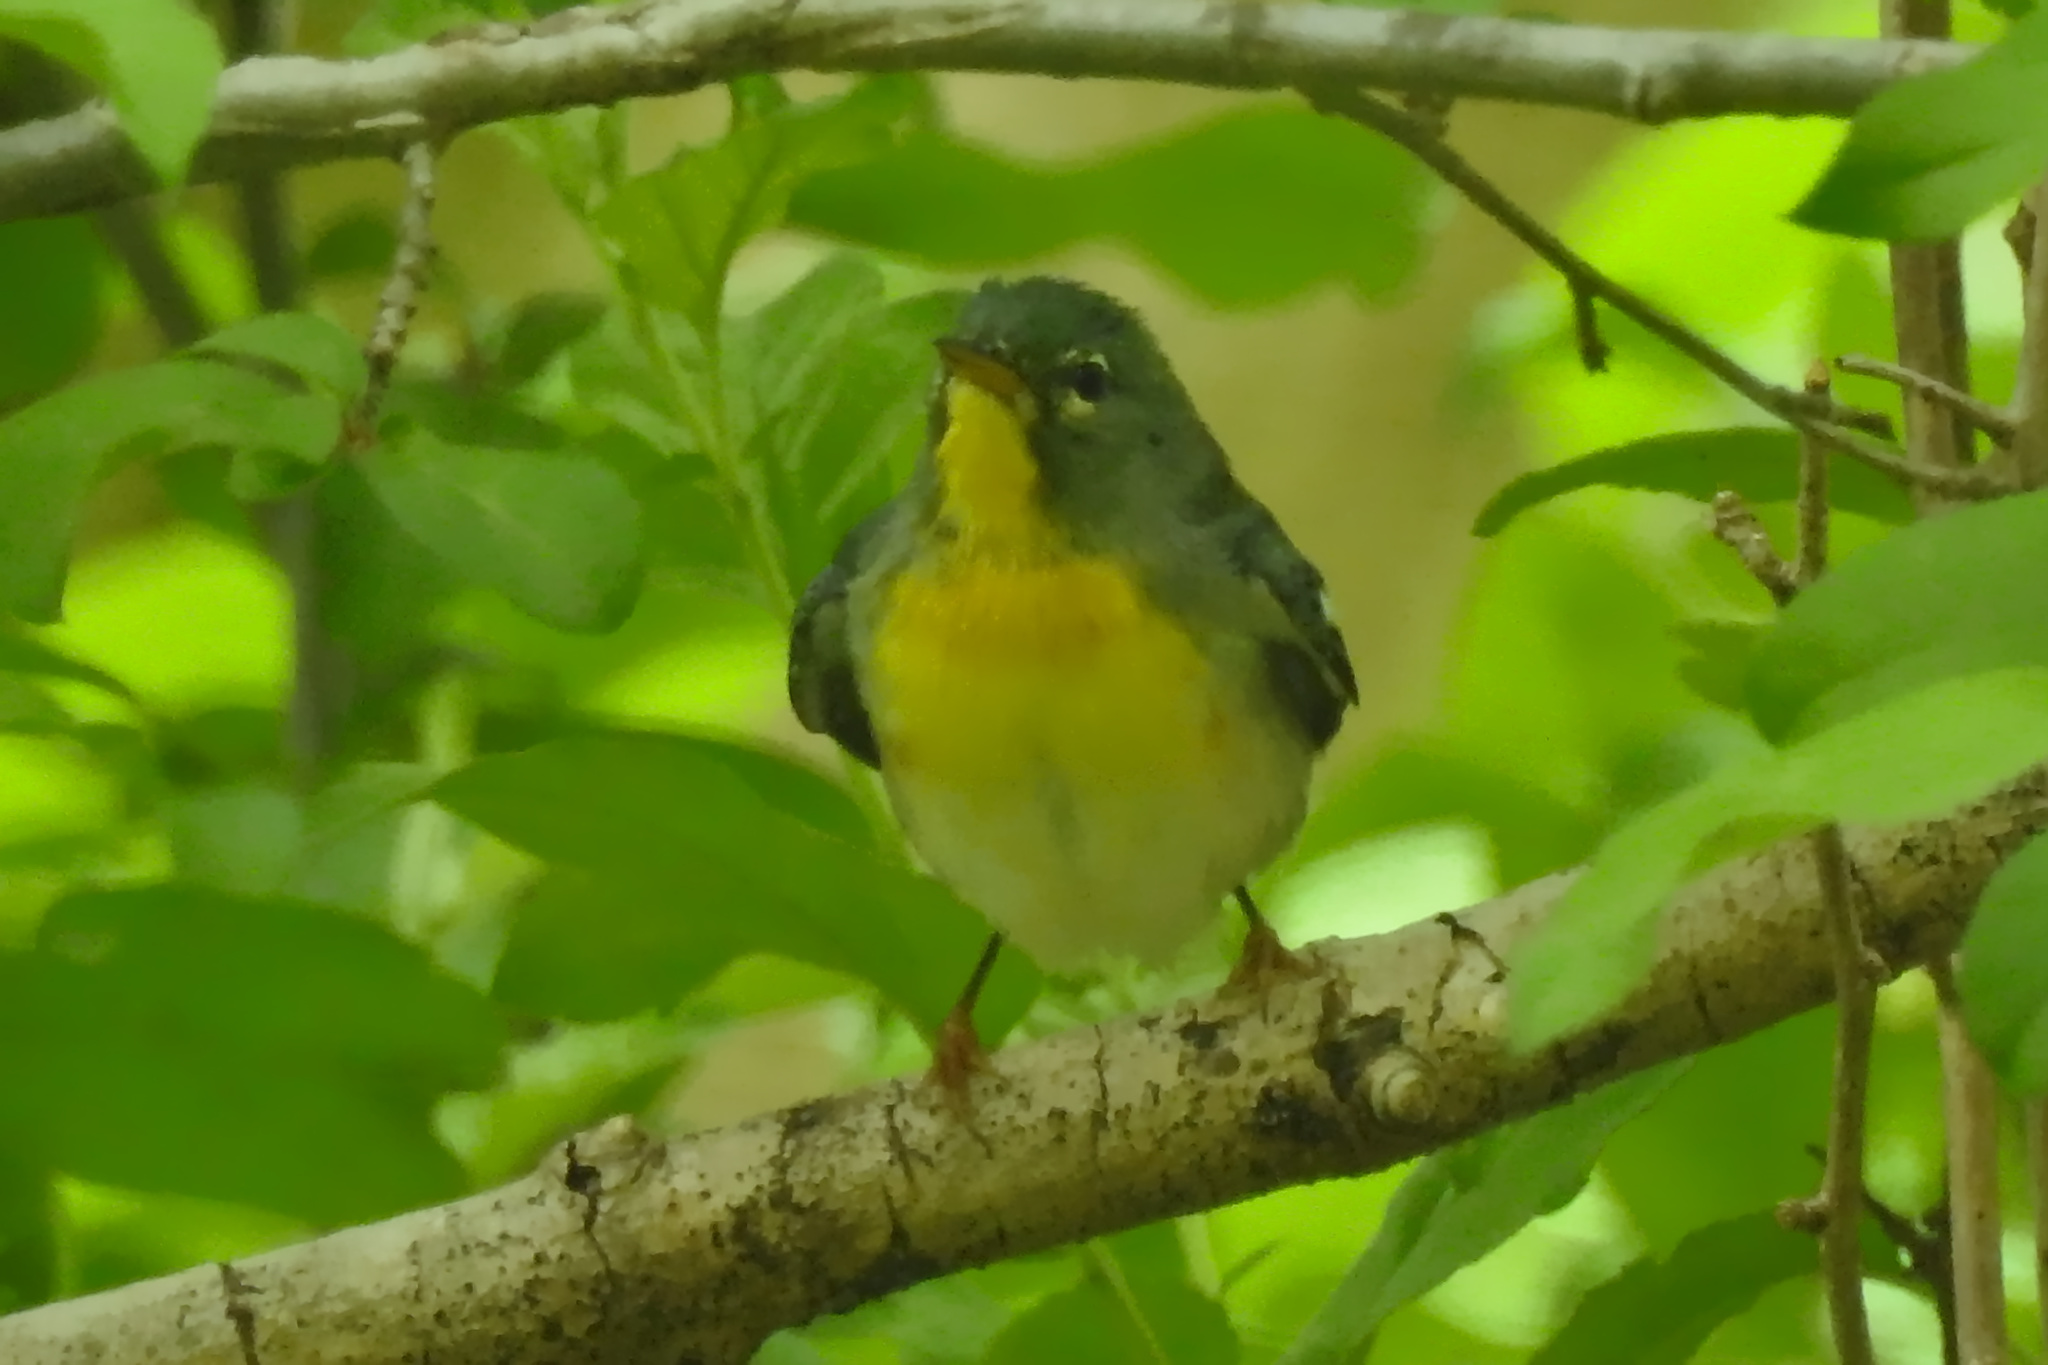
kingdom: Animalia
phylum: Chordata
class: Aves
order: Passeriformes
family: Parulidae
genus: Setophaga
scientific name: Setophaga americana
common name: Northern parula
